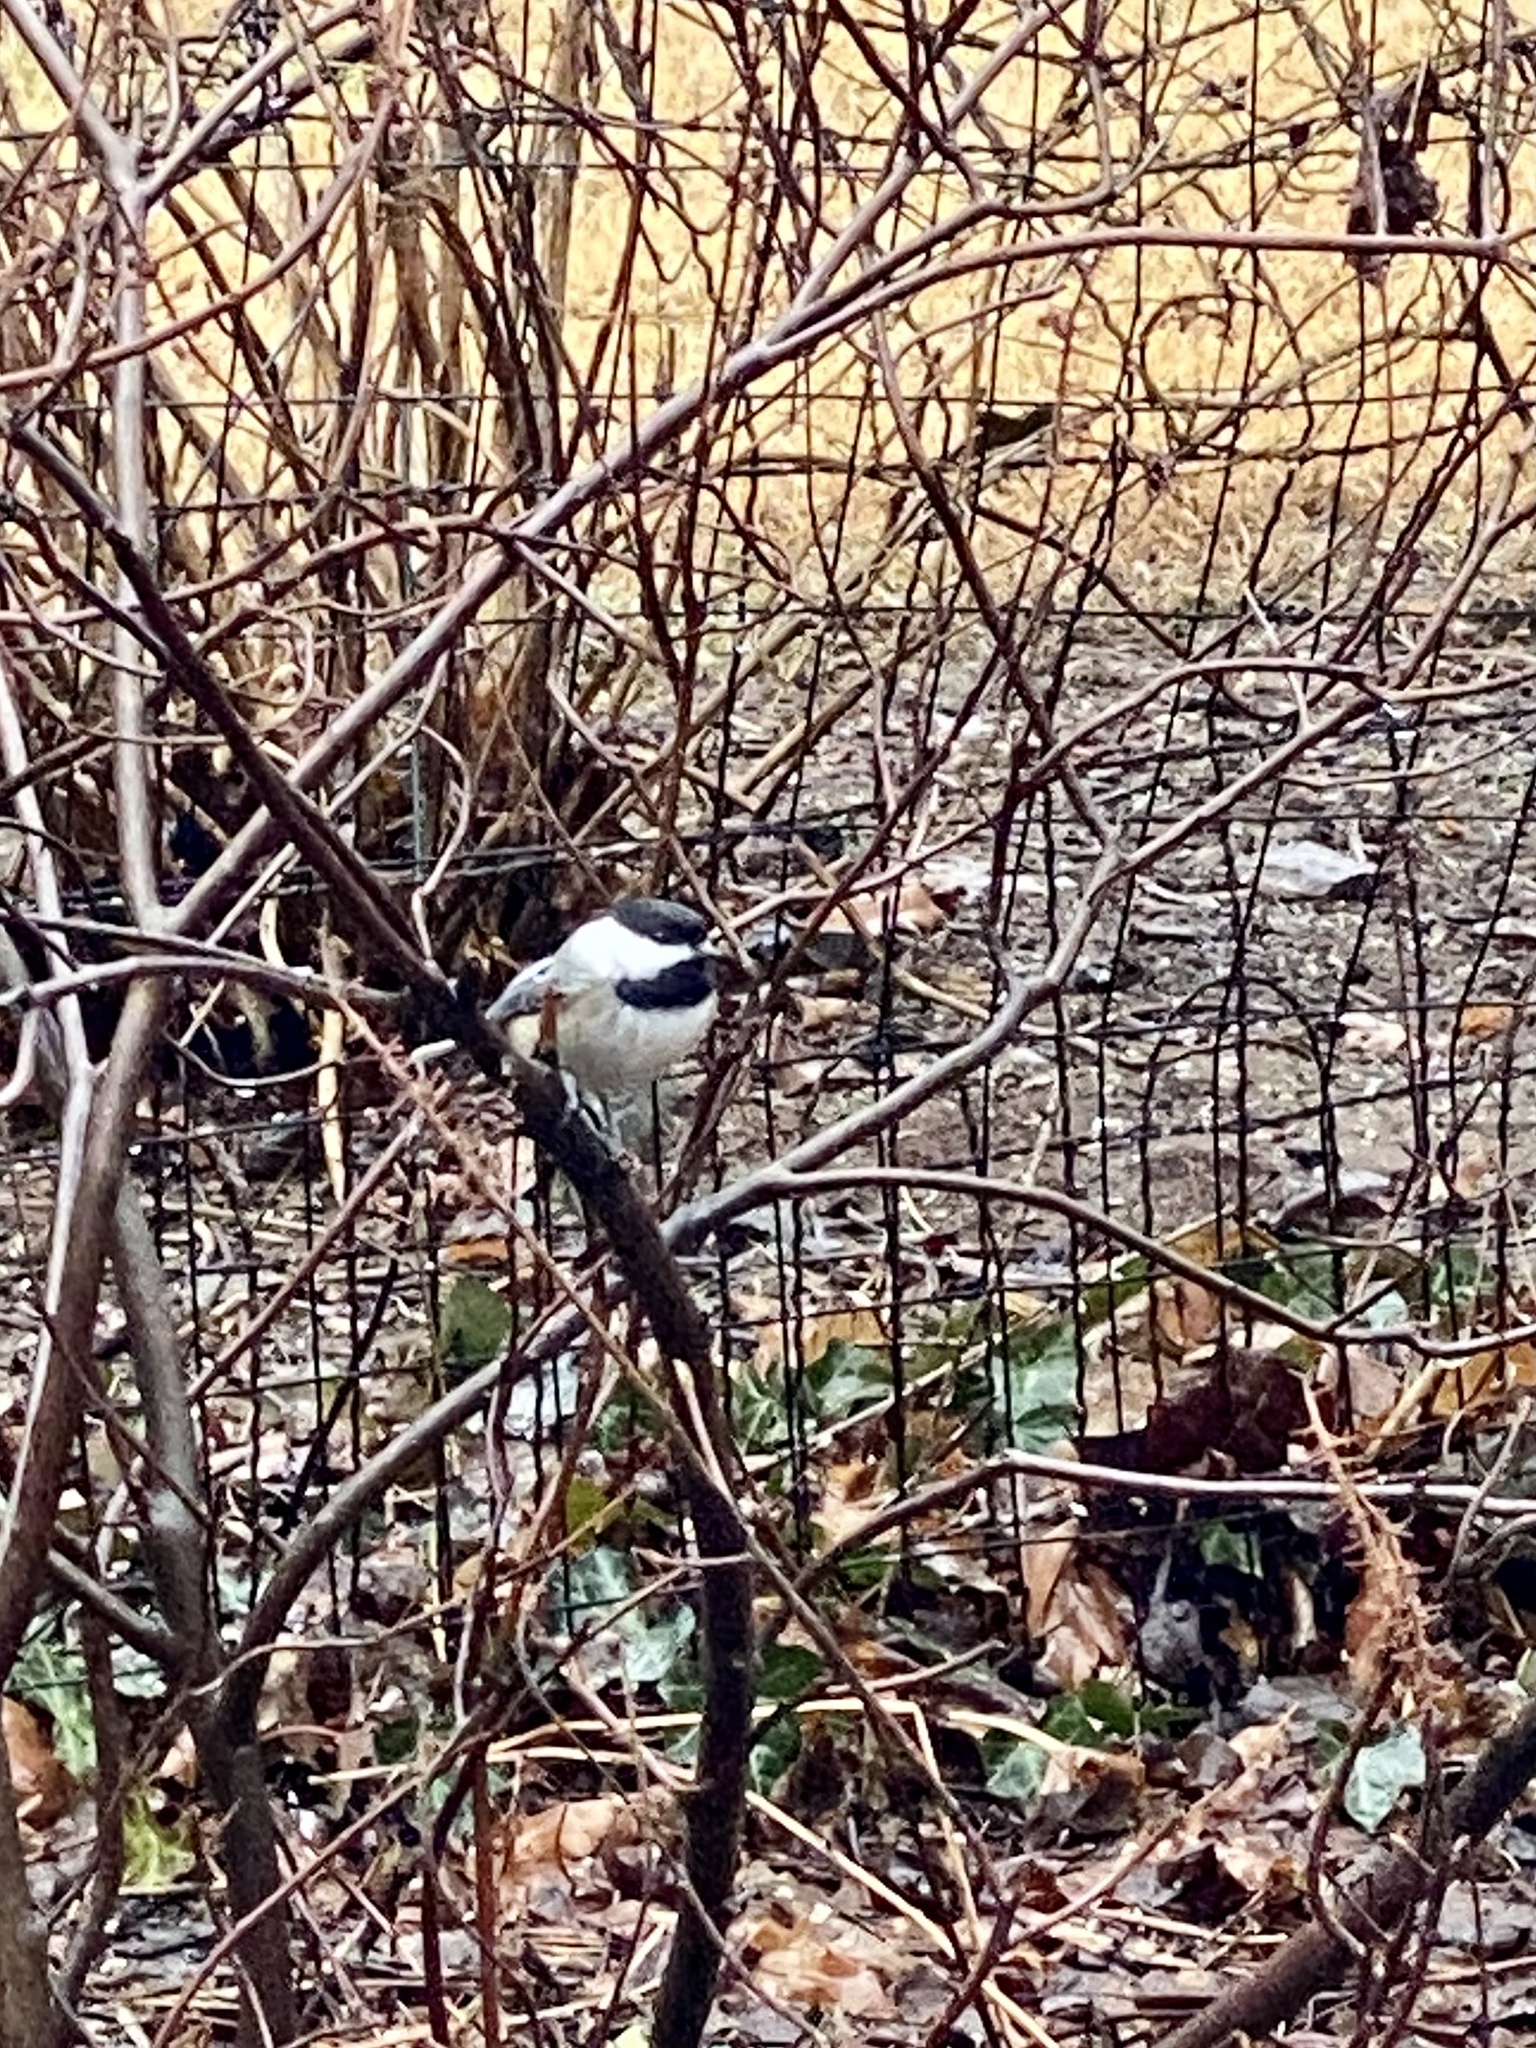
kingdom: Animalia
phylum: Chordata
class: Aves
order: Passeriformes
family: Paridae
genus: Poecile
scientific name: Poecile atricapillus
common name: Black-capped chickadee
